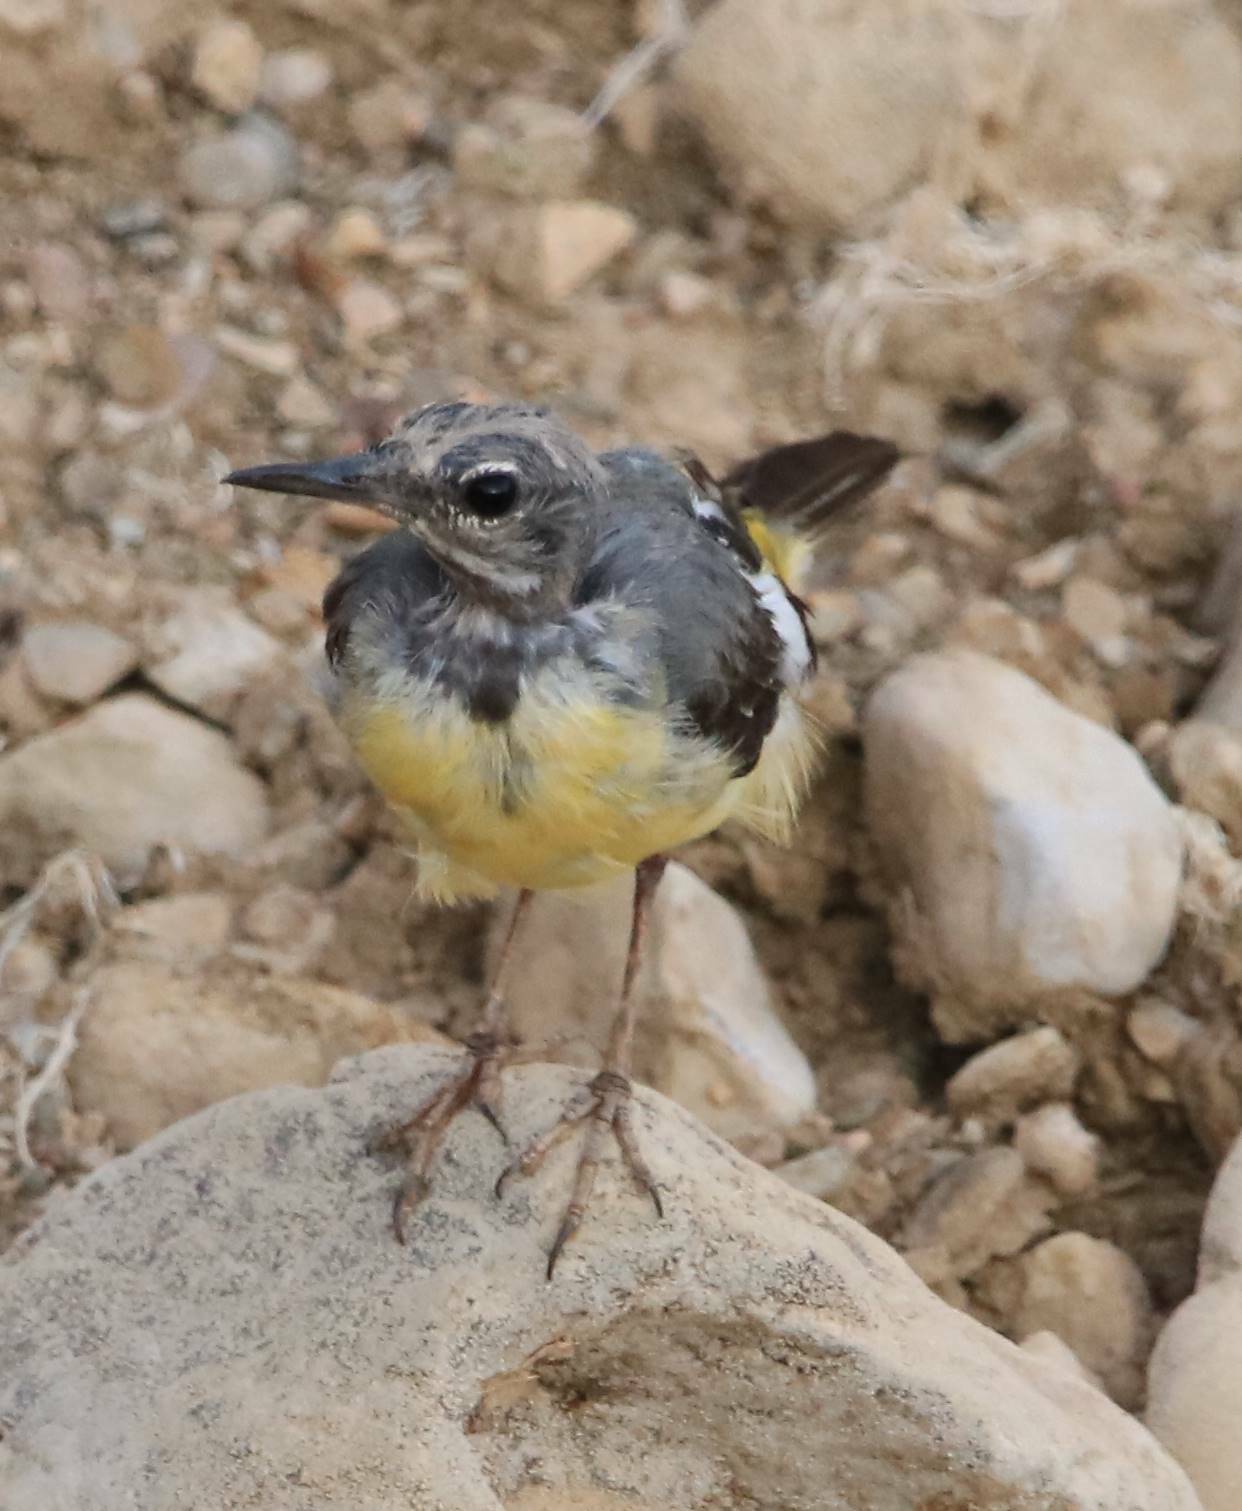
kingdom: Animalia
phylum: Chordata
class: Aves
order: Passeriformes
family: Motacillidae
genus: Motacilla
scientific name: Motacilla cinerea
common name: Grey wagtail
